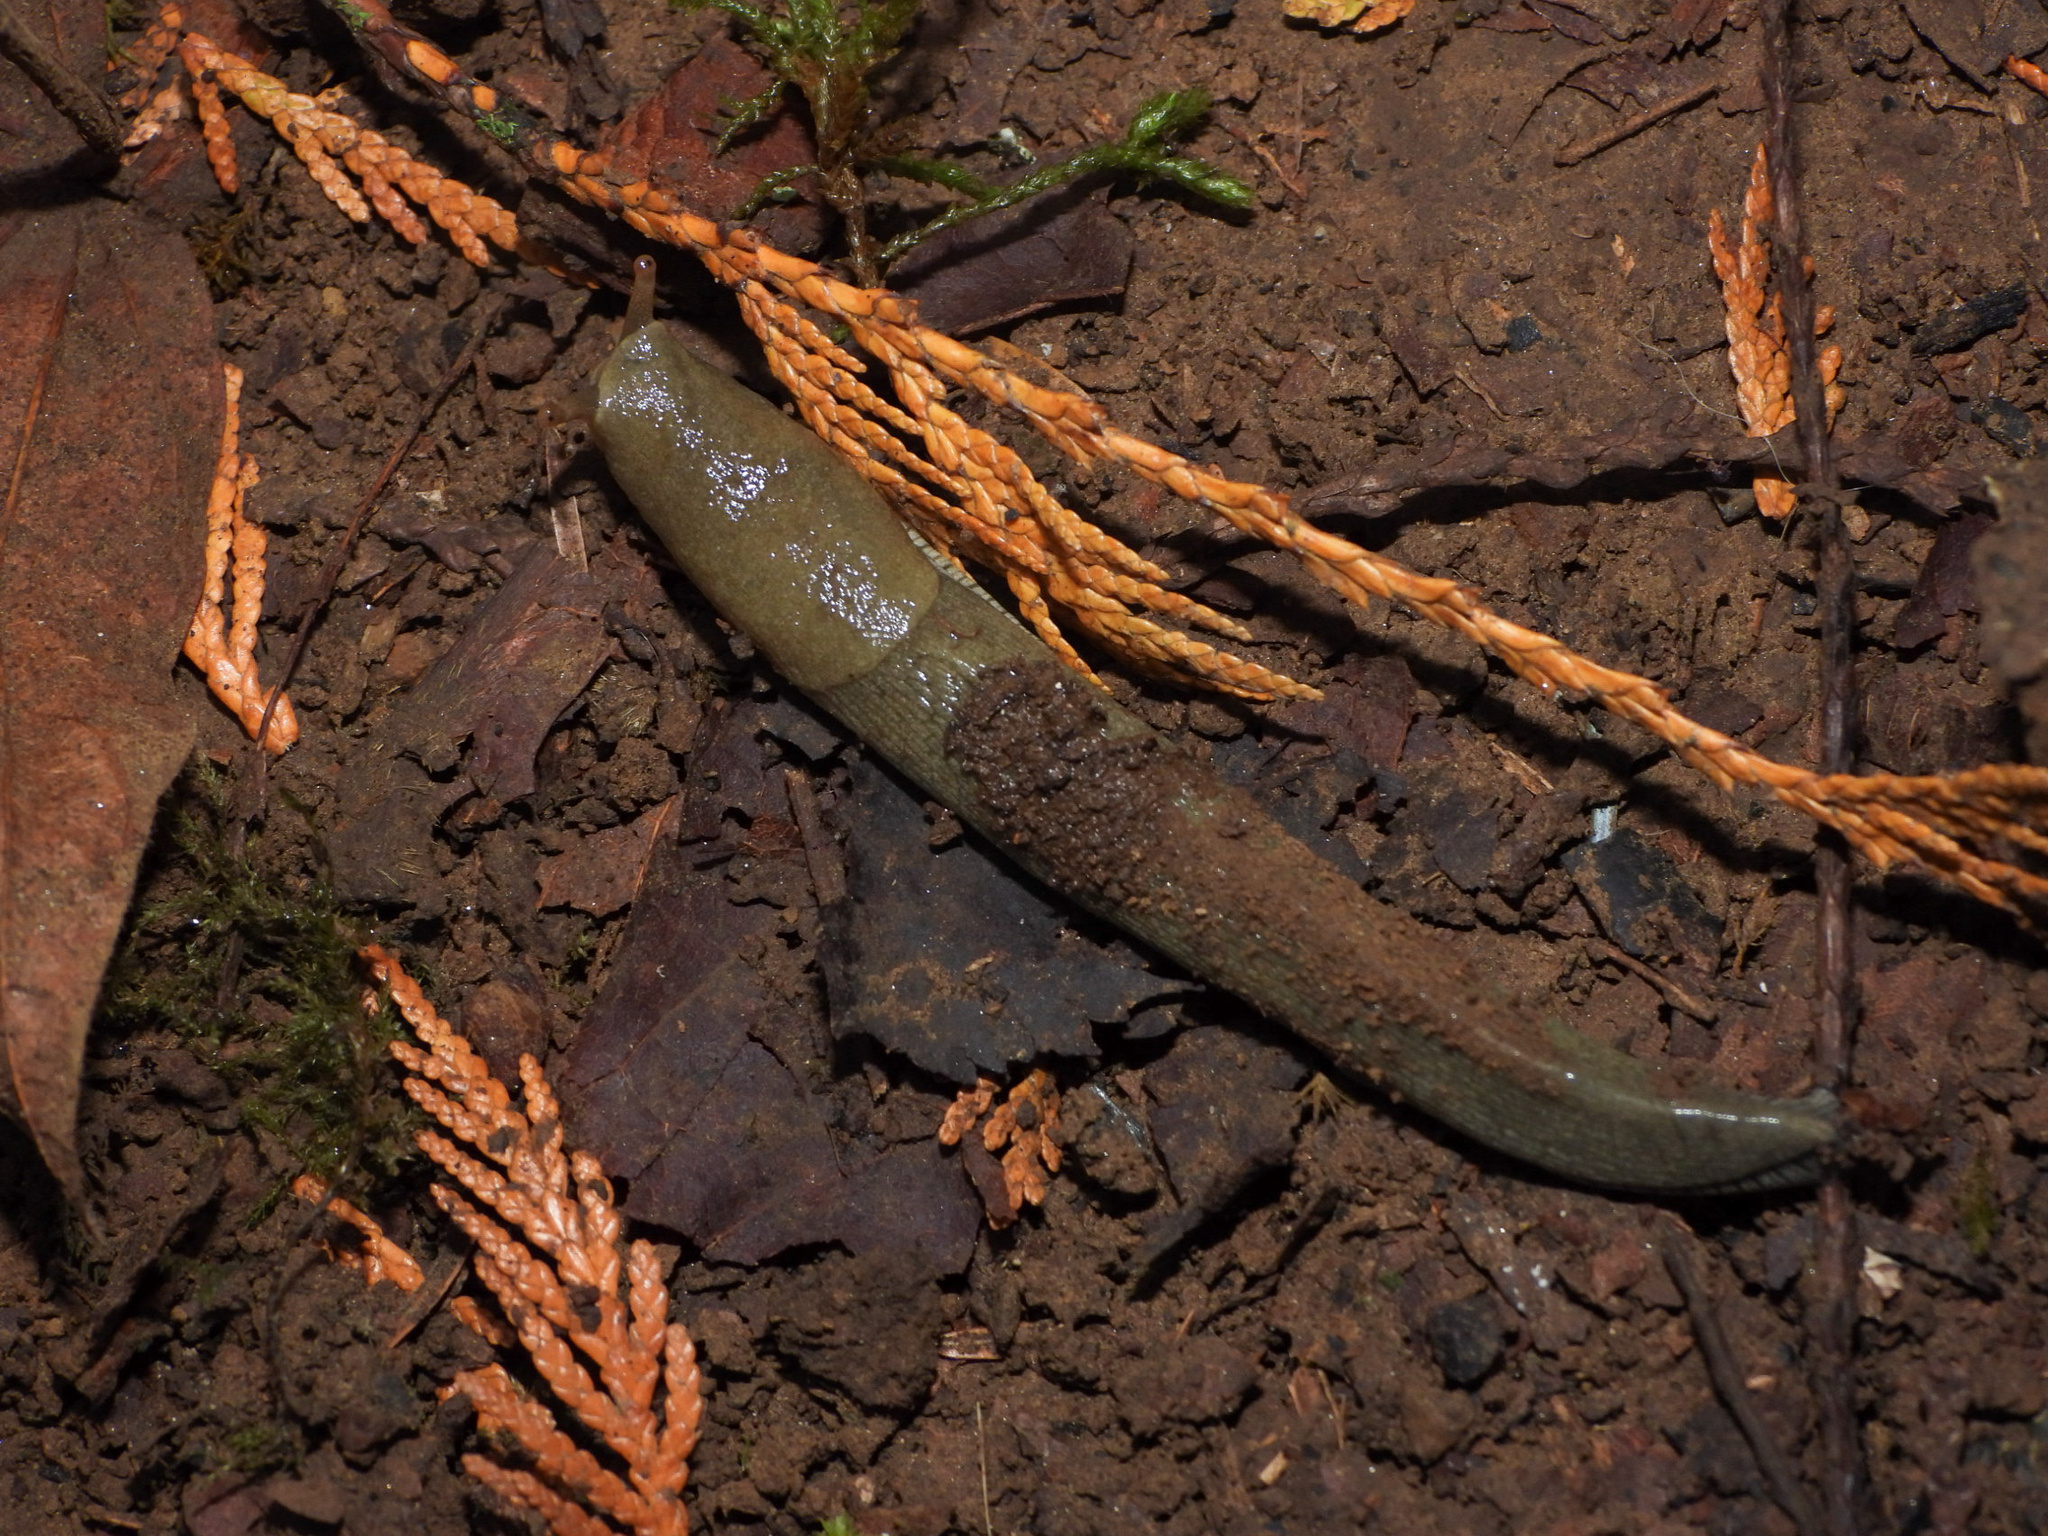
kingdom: Animalia
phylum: Mollusca
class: Gastropoda
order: Stylommatophora
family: Ariolimacidae
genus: Ariolimax
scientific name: Ariolimax columbianus
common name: Pacific banana slug
